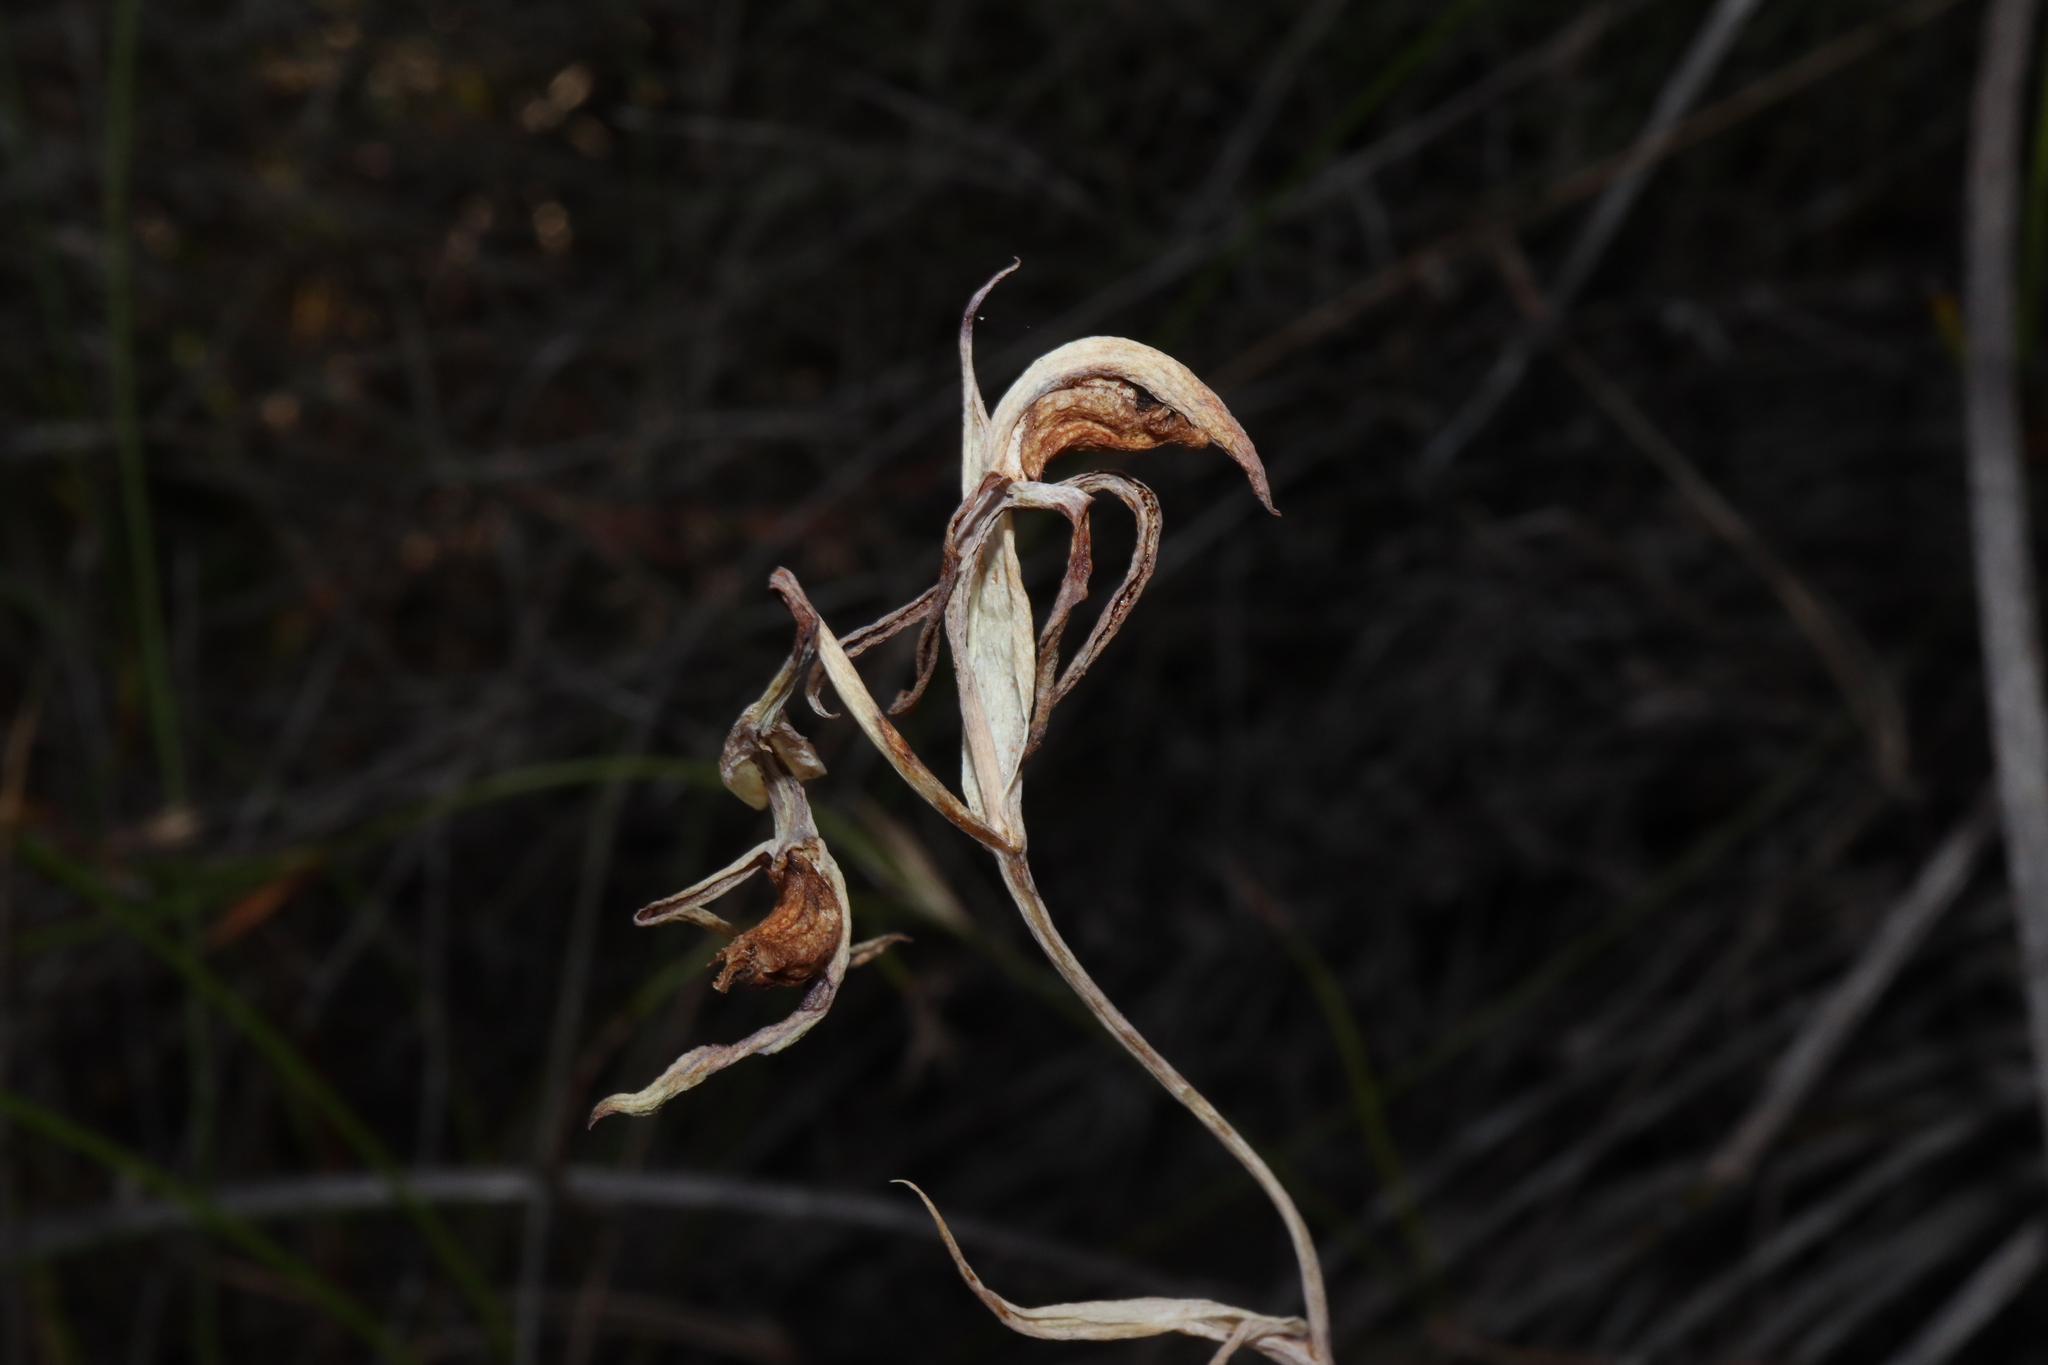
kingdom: Plantae
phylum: Tracheophyta
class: Liliopsida
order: Asparagales
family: Orchidaceae
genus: Lyperanthus
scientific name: Lyperanthus serratus
